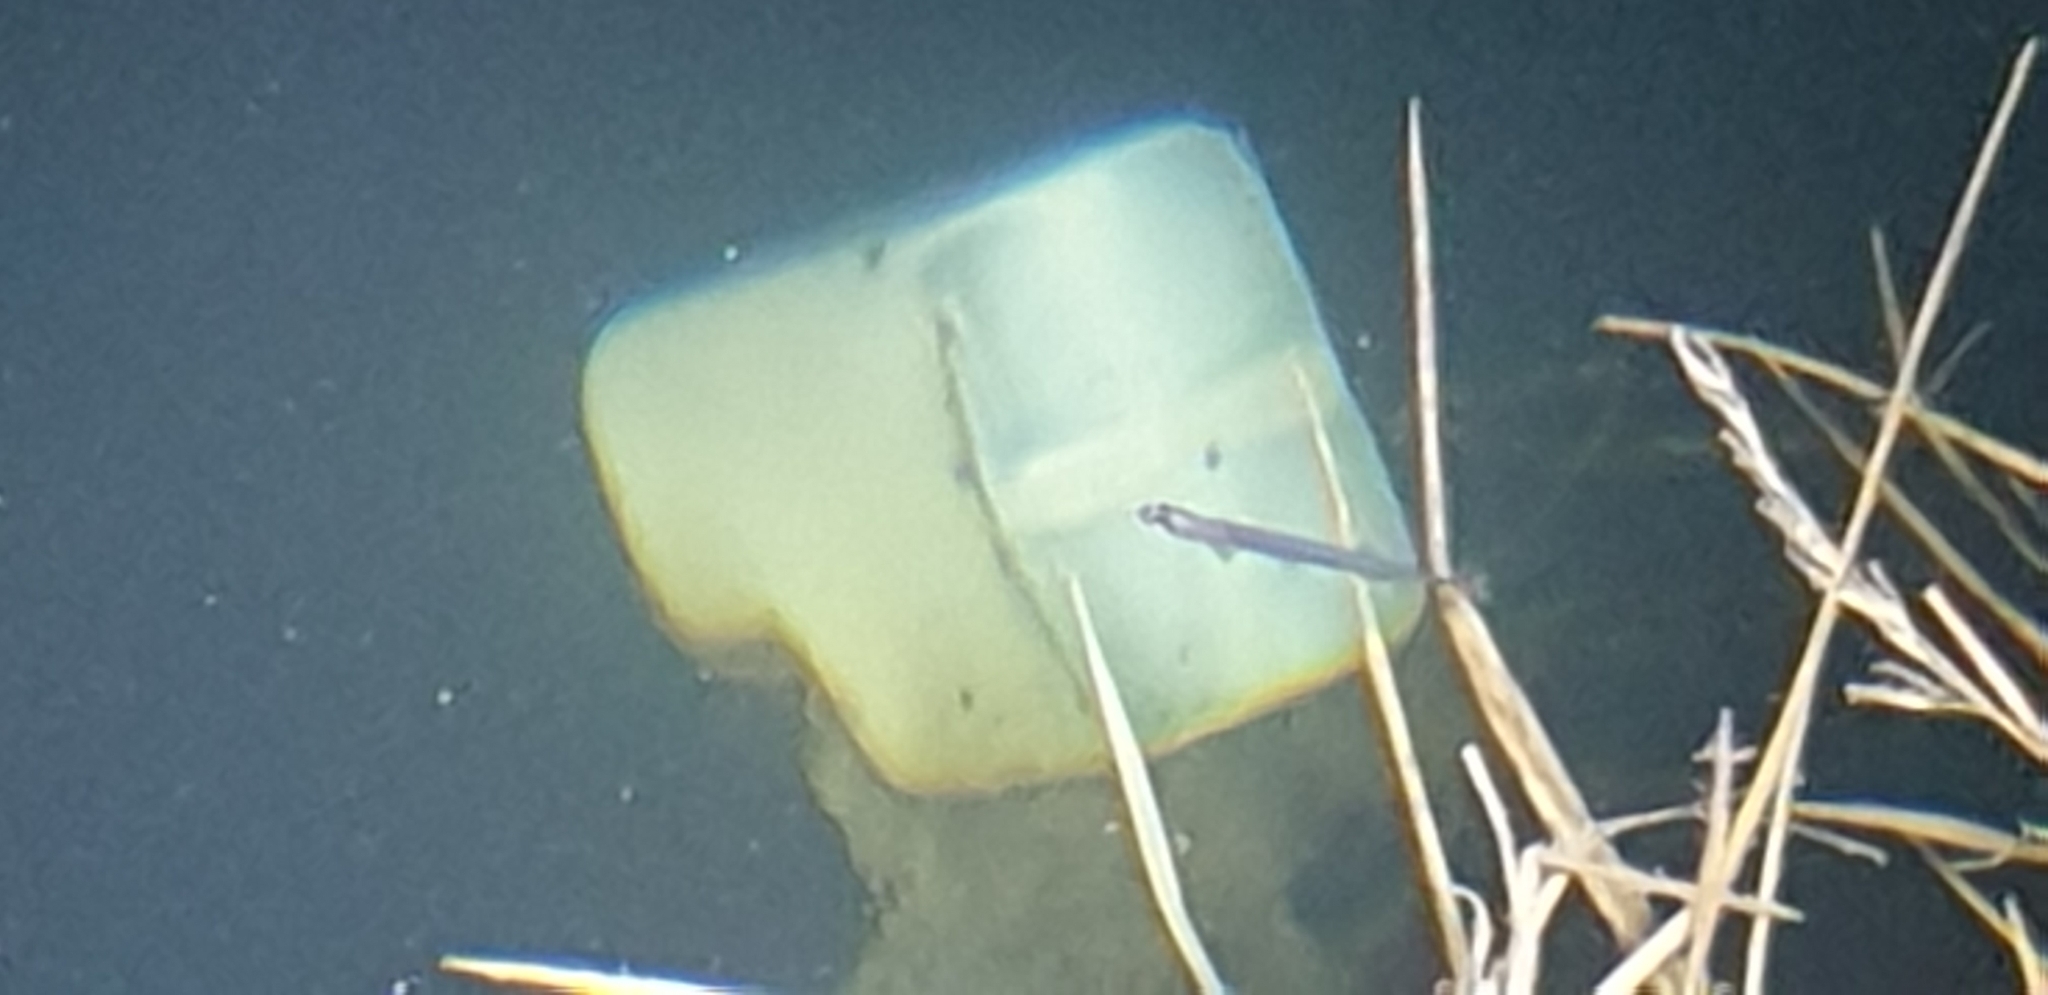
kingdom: Animalia
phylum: Chordata
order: Osmeriformes
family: Retropinnidae
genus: Retropinna
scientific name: Retropinna retropinna
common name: Common smelt
